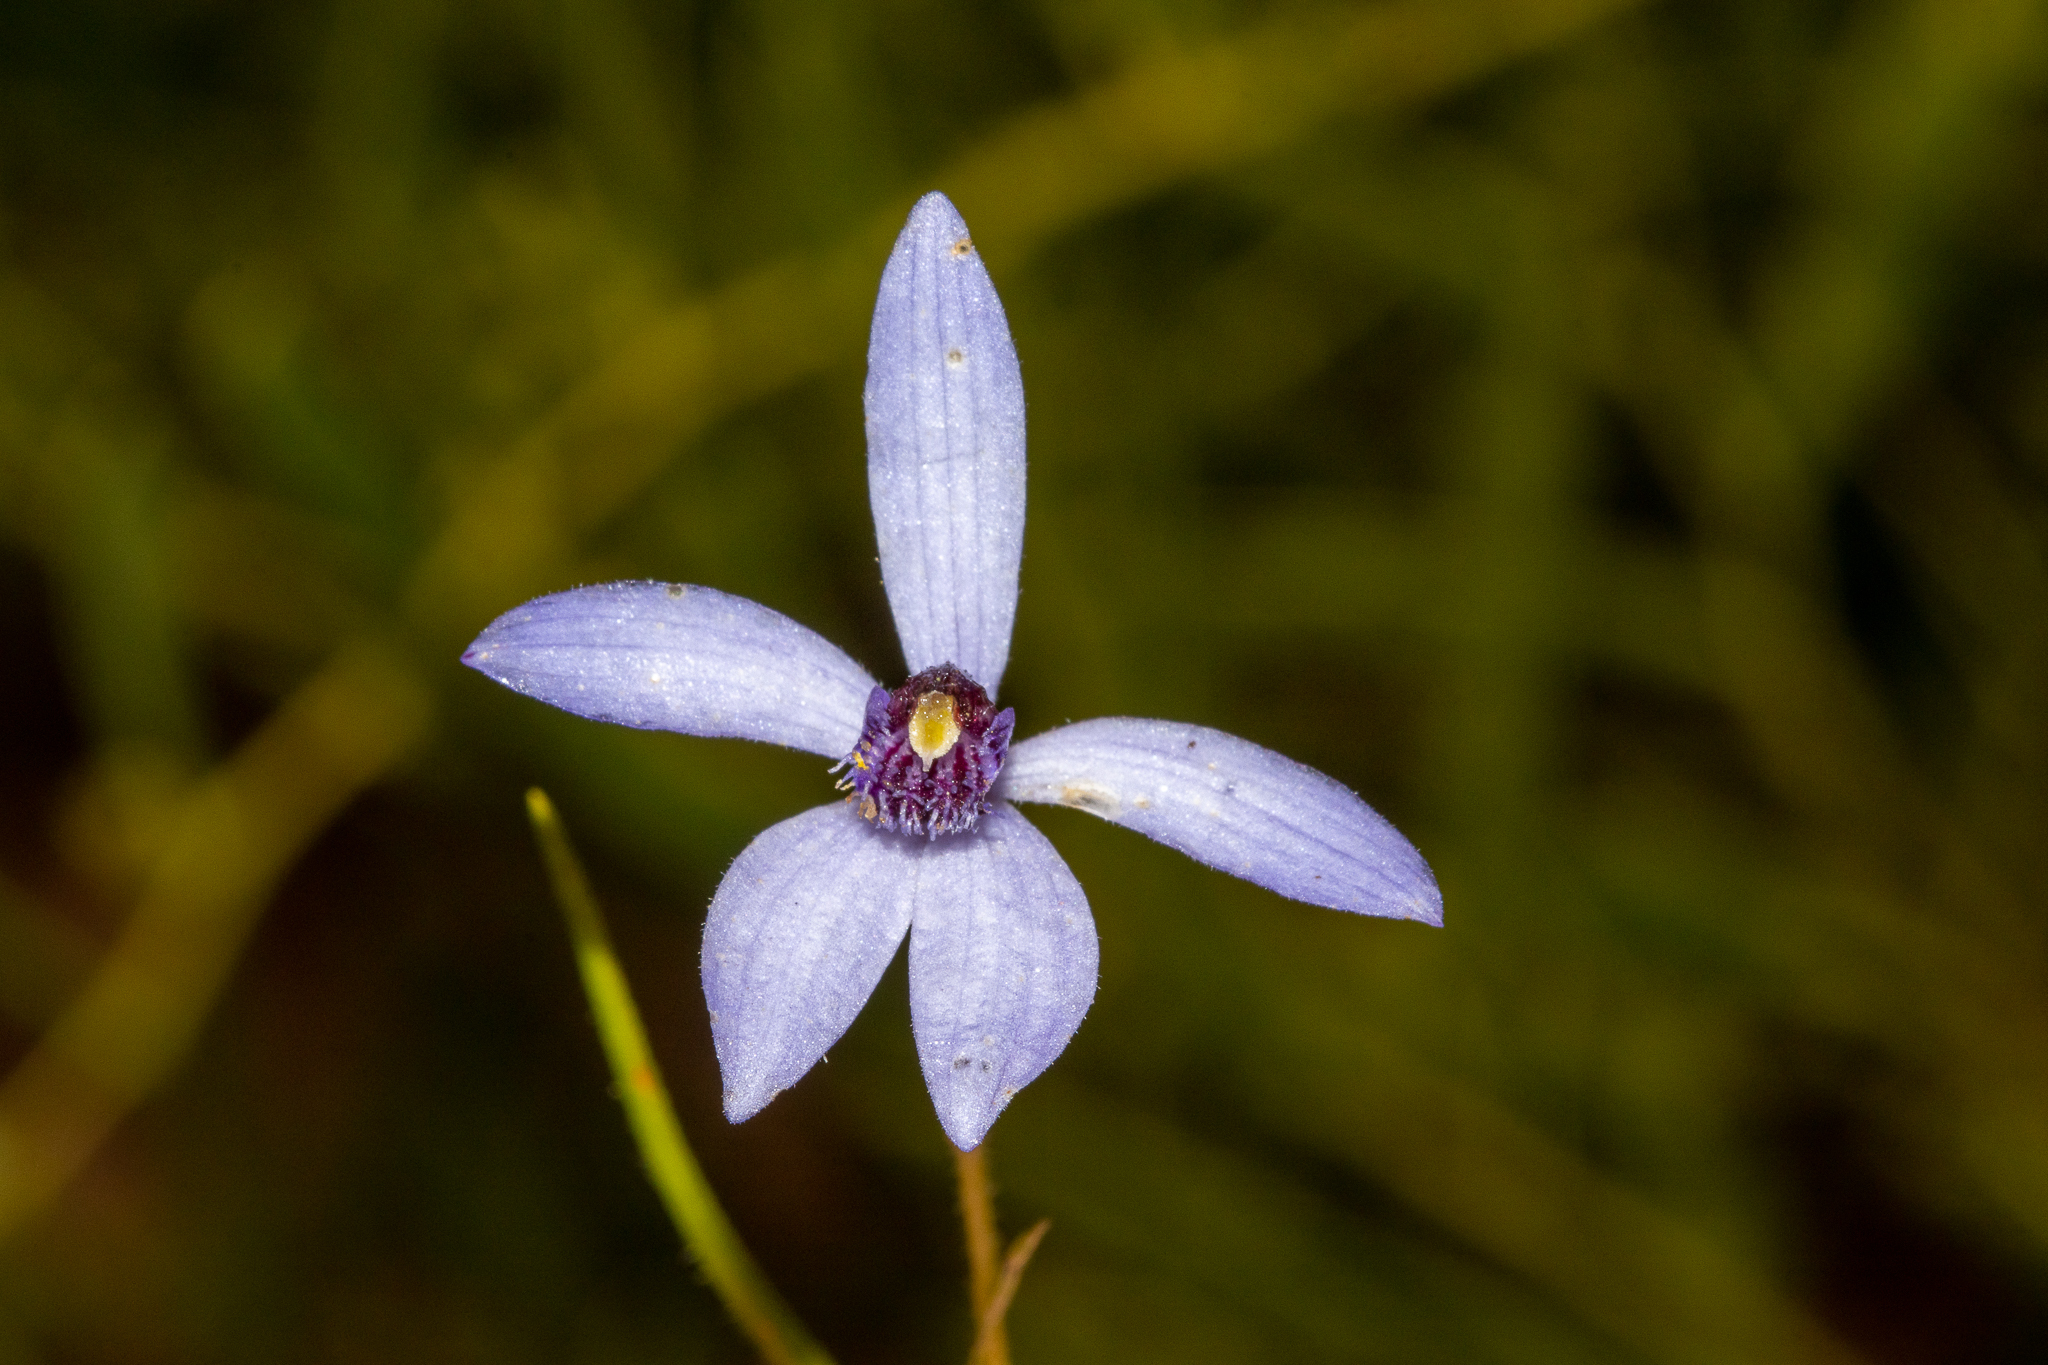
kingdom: Plantae
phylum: Tracheophyta
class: Liliopsida
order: Asparagales
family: Orchidaceae
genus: Pheladenia
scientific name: Pheladenia deformis
